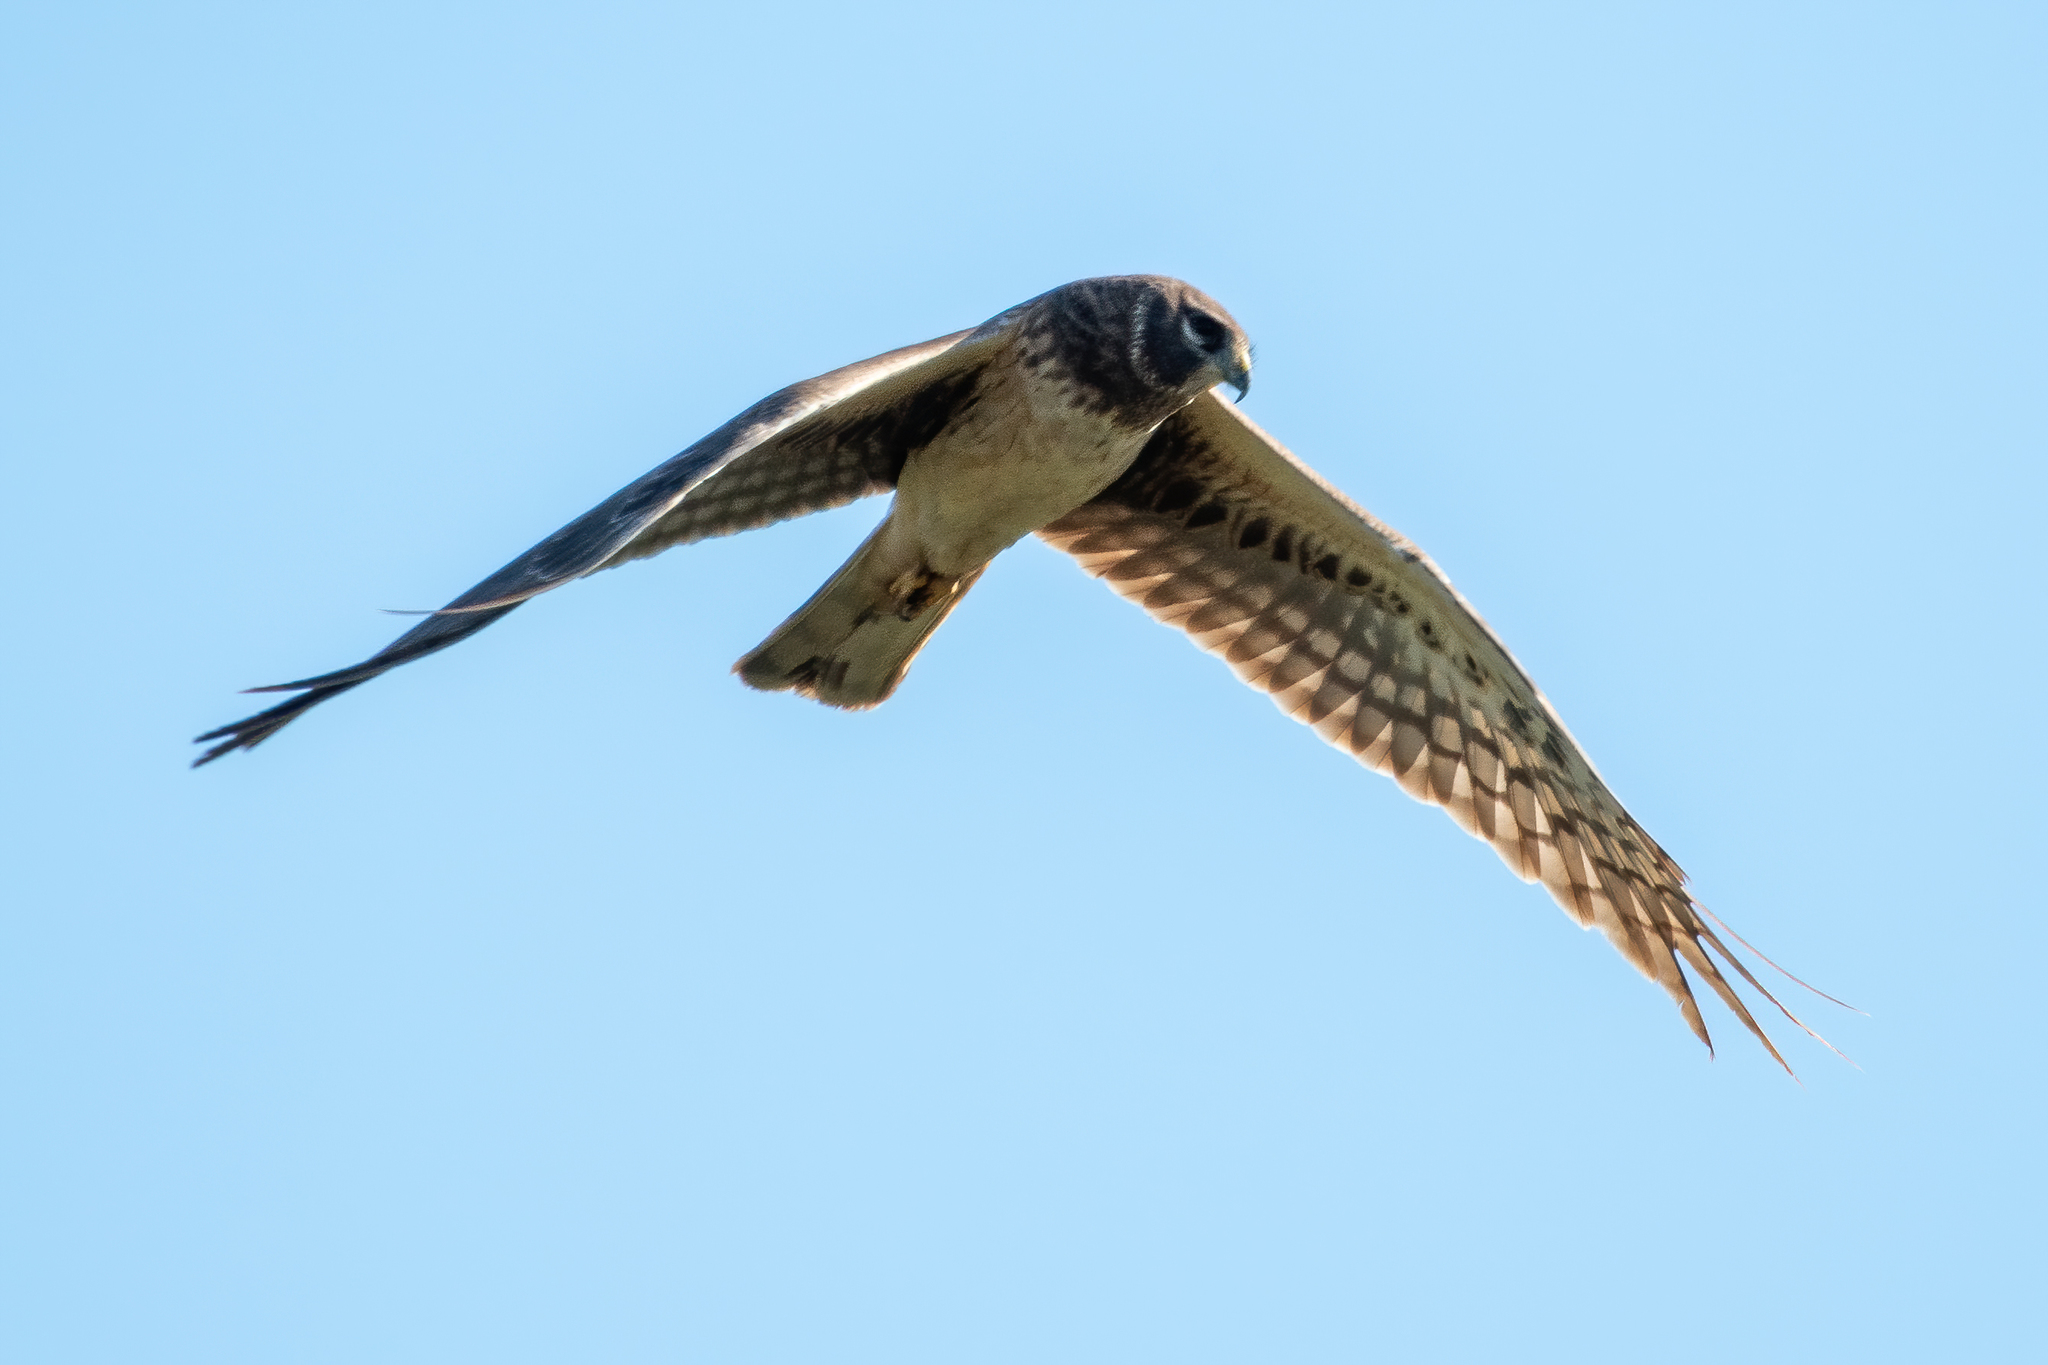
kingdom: Animalia
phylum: Chordata
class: Aves
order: Accipitriformes
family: Accipitridae
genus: Circus
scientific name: Circus cyaneus
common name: Hen harrier
